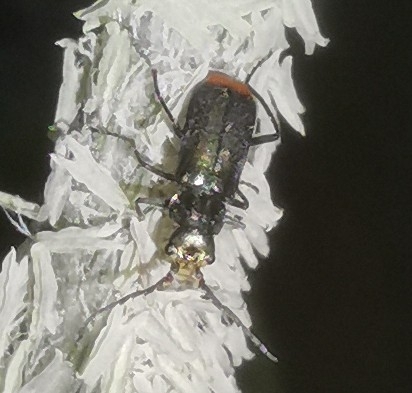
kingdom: Animalia
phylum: Arthropoda
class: Insecta
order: Coleoptera
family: Melyridae
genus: Malachius
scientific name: Malachius bipustulatus
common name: Malachite beetle
